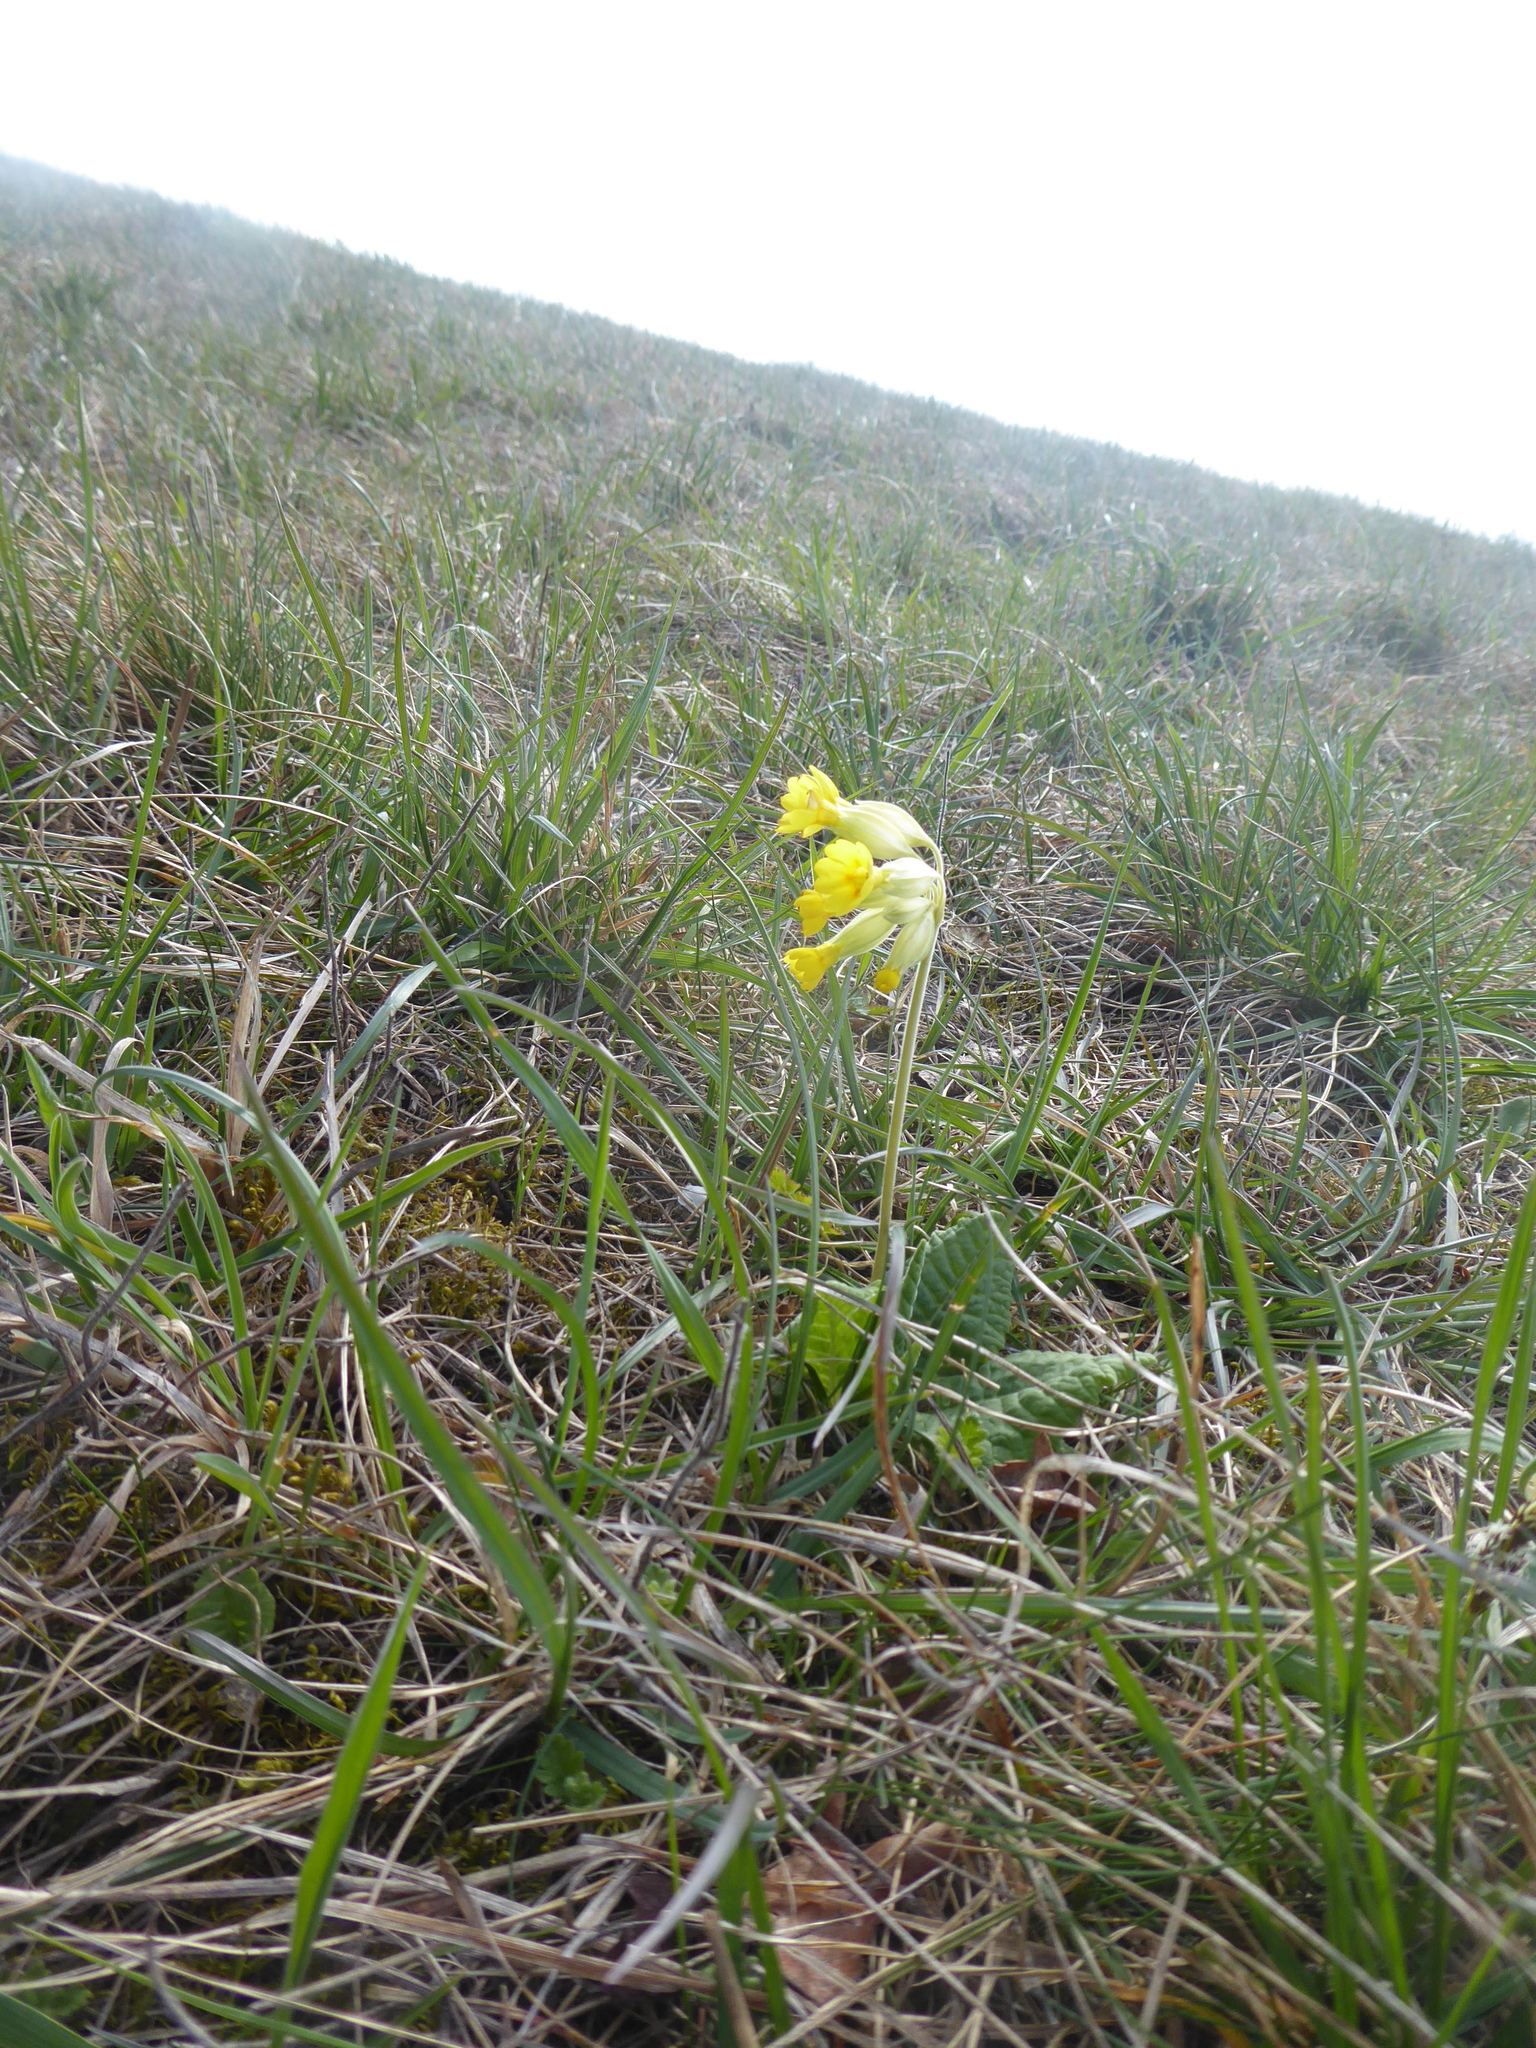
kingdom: Plantae
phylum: Tracheophyta
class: Magnoliopsida
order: Ericales
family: Primulaceae
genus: Primula
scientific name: Primula veris
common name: Cowslip
